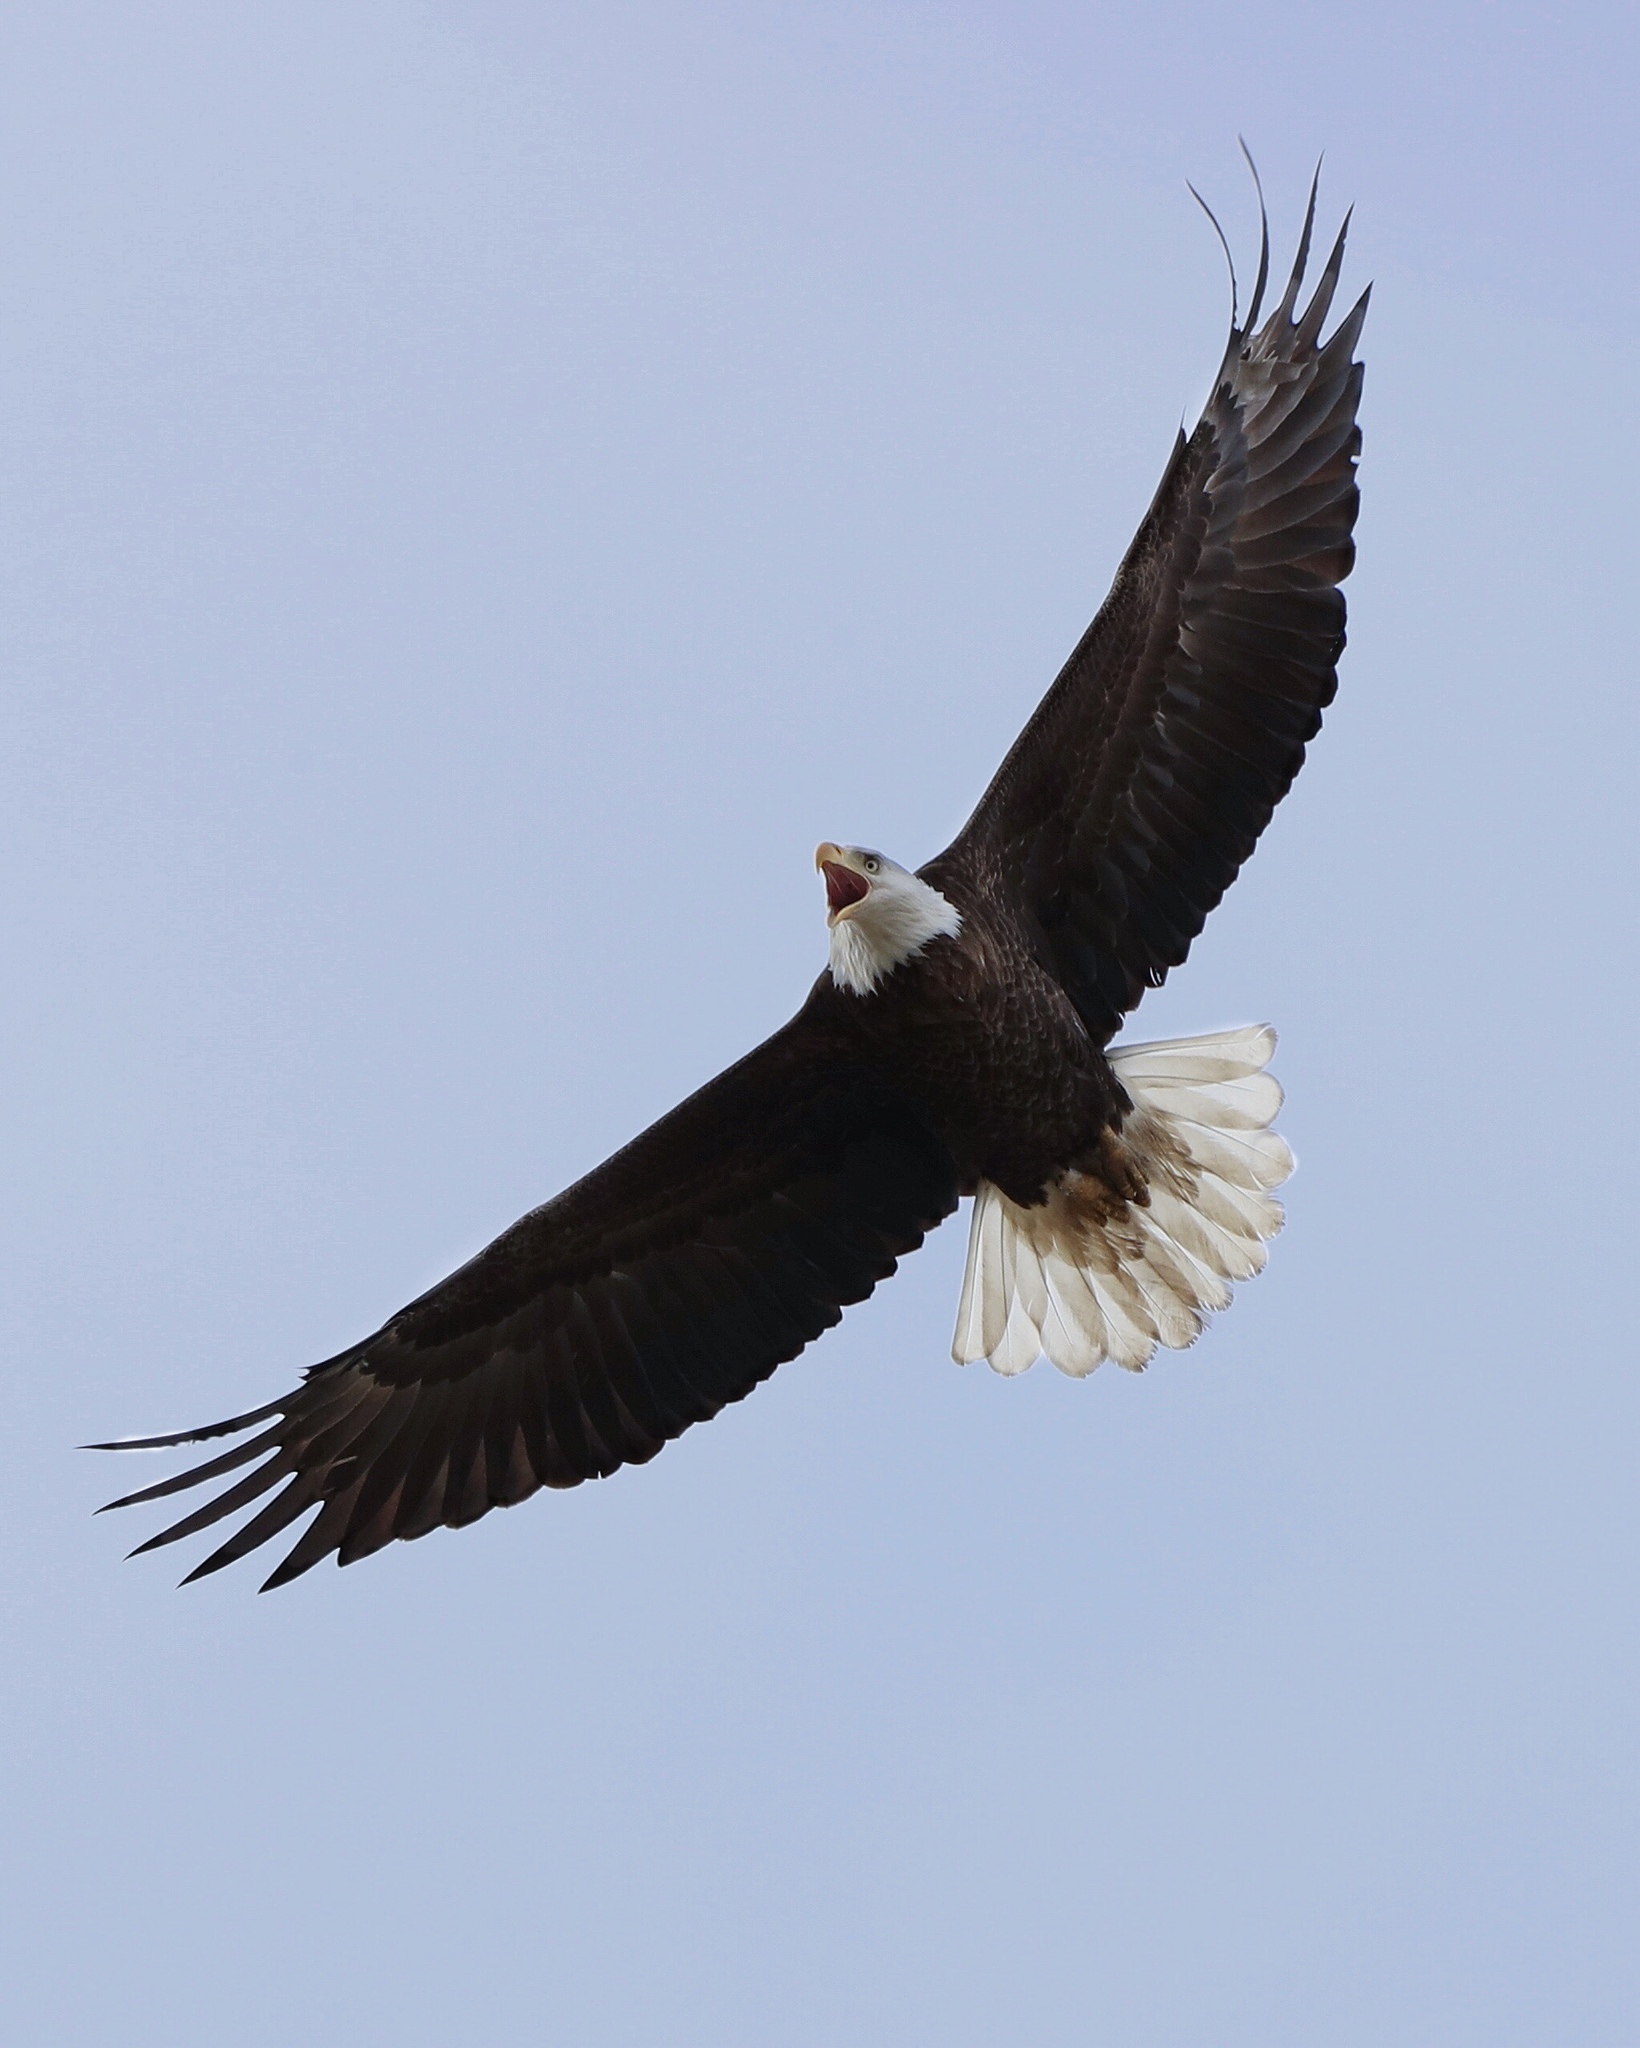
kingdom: Animalia
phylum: Chordata
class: Aves
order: Accipitriformes
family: Accipitridae
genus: Haliaeetus
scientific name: Haliaeetus leucocephalus
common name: Bald eagle
